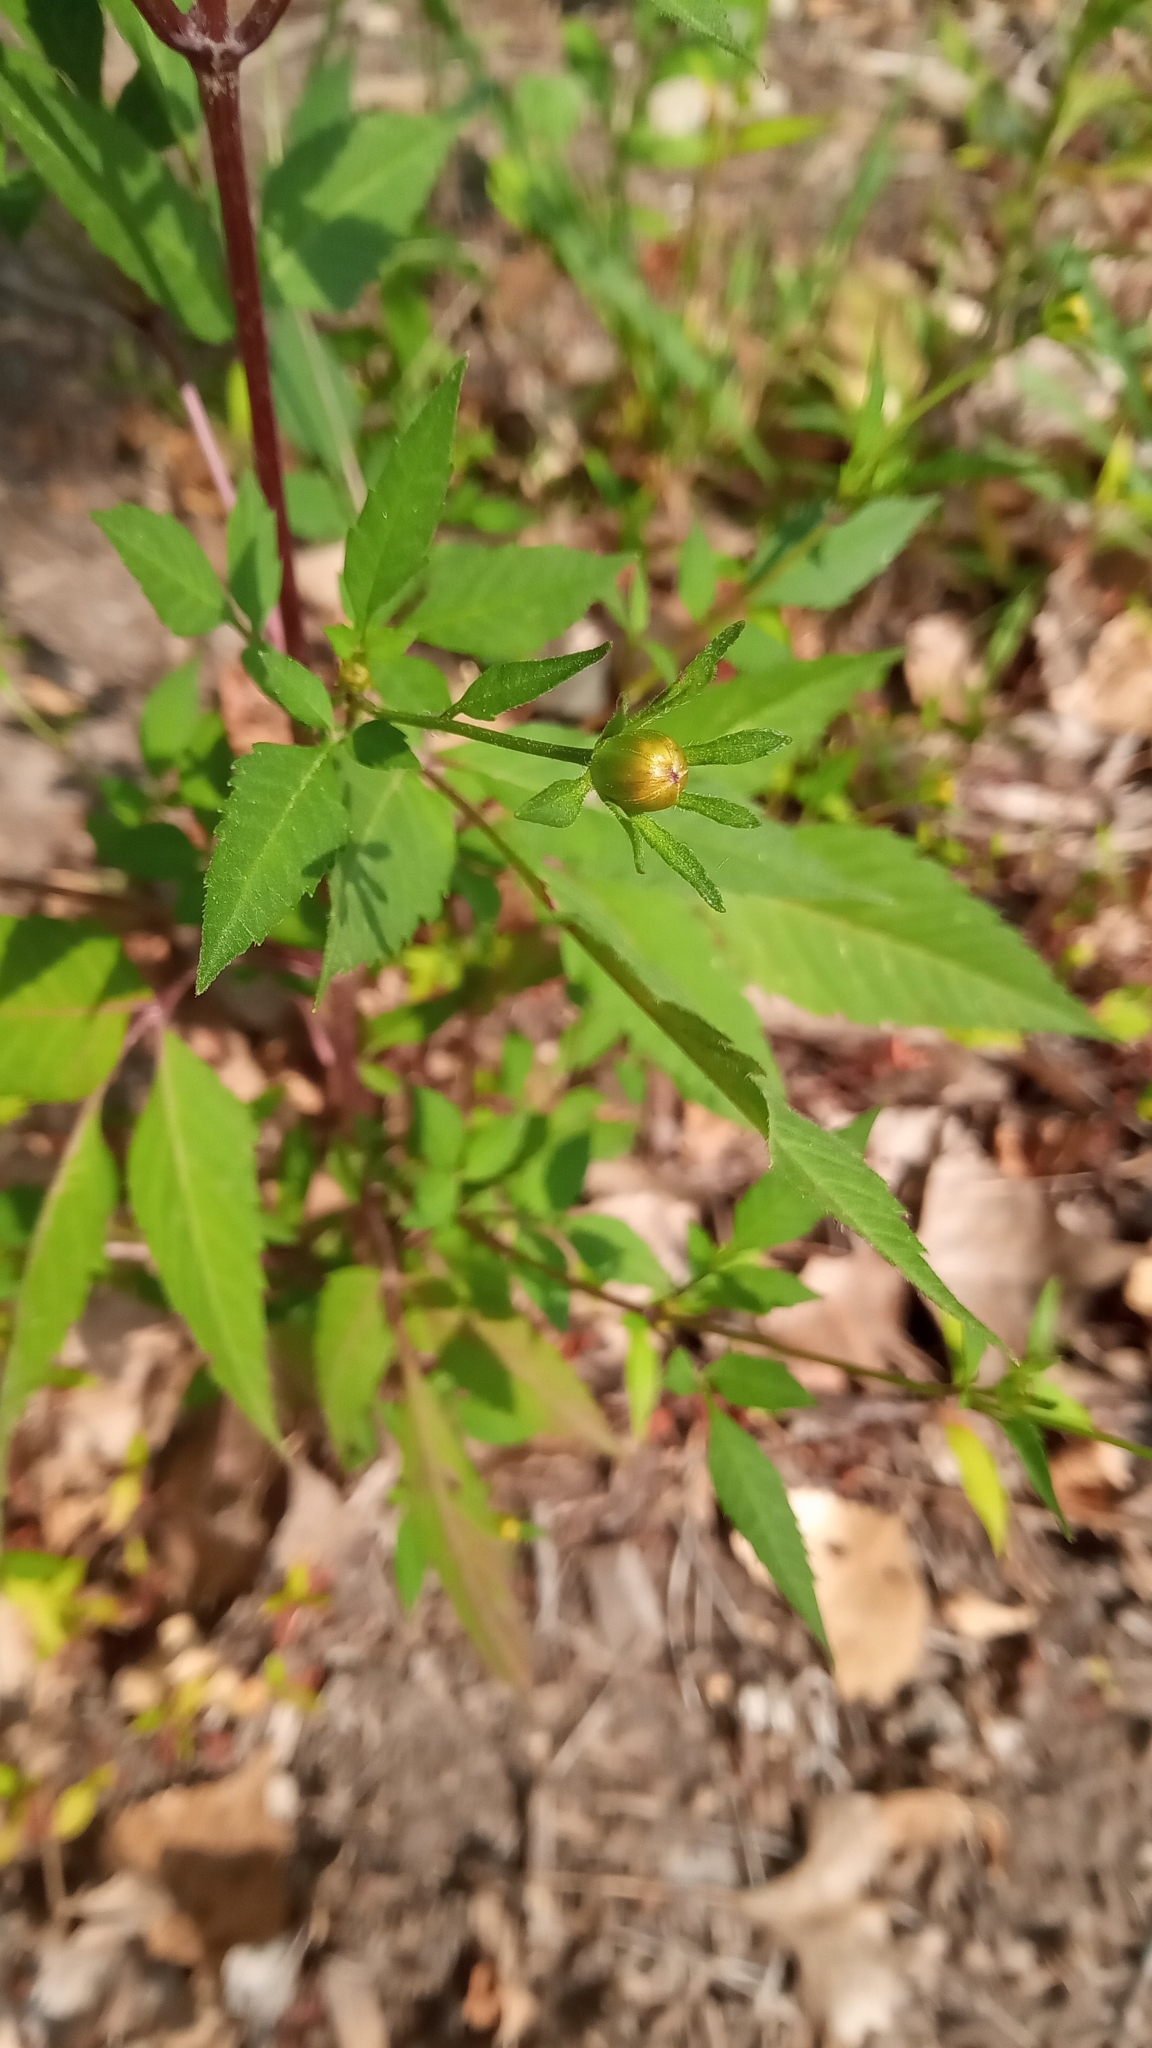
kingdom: Plantae
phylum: Tracheophyta
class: Magnoliopsida
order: Asterales
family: Asteraceae
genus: Bidens
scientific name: Bidens frondosa
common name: Beggarticks
